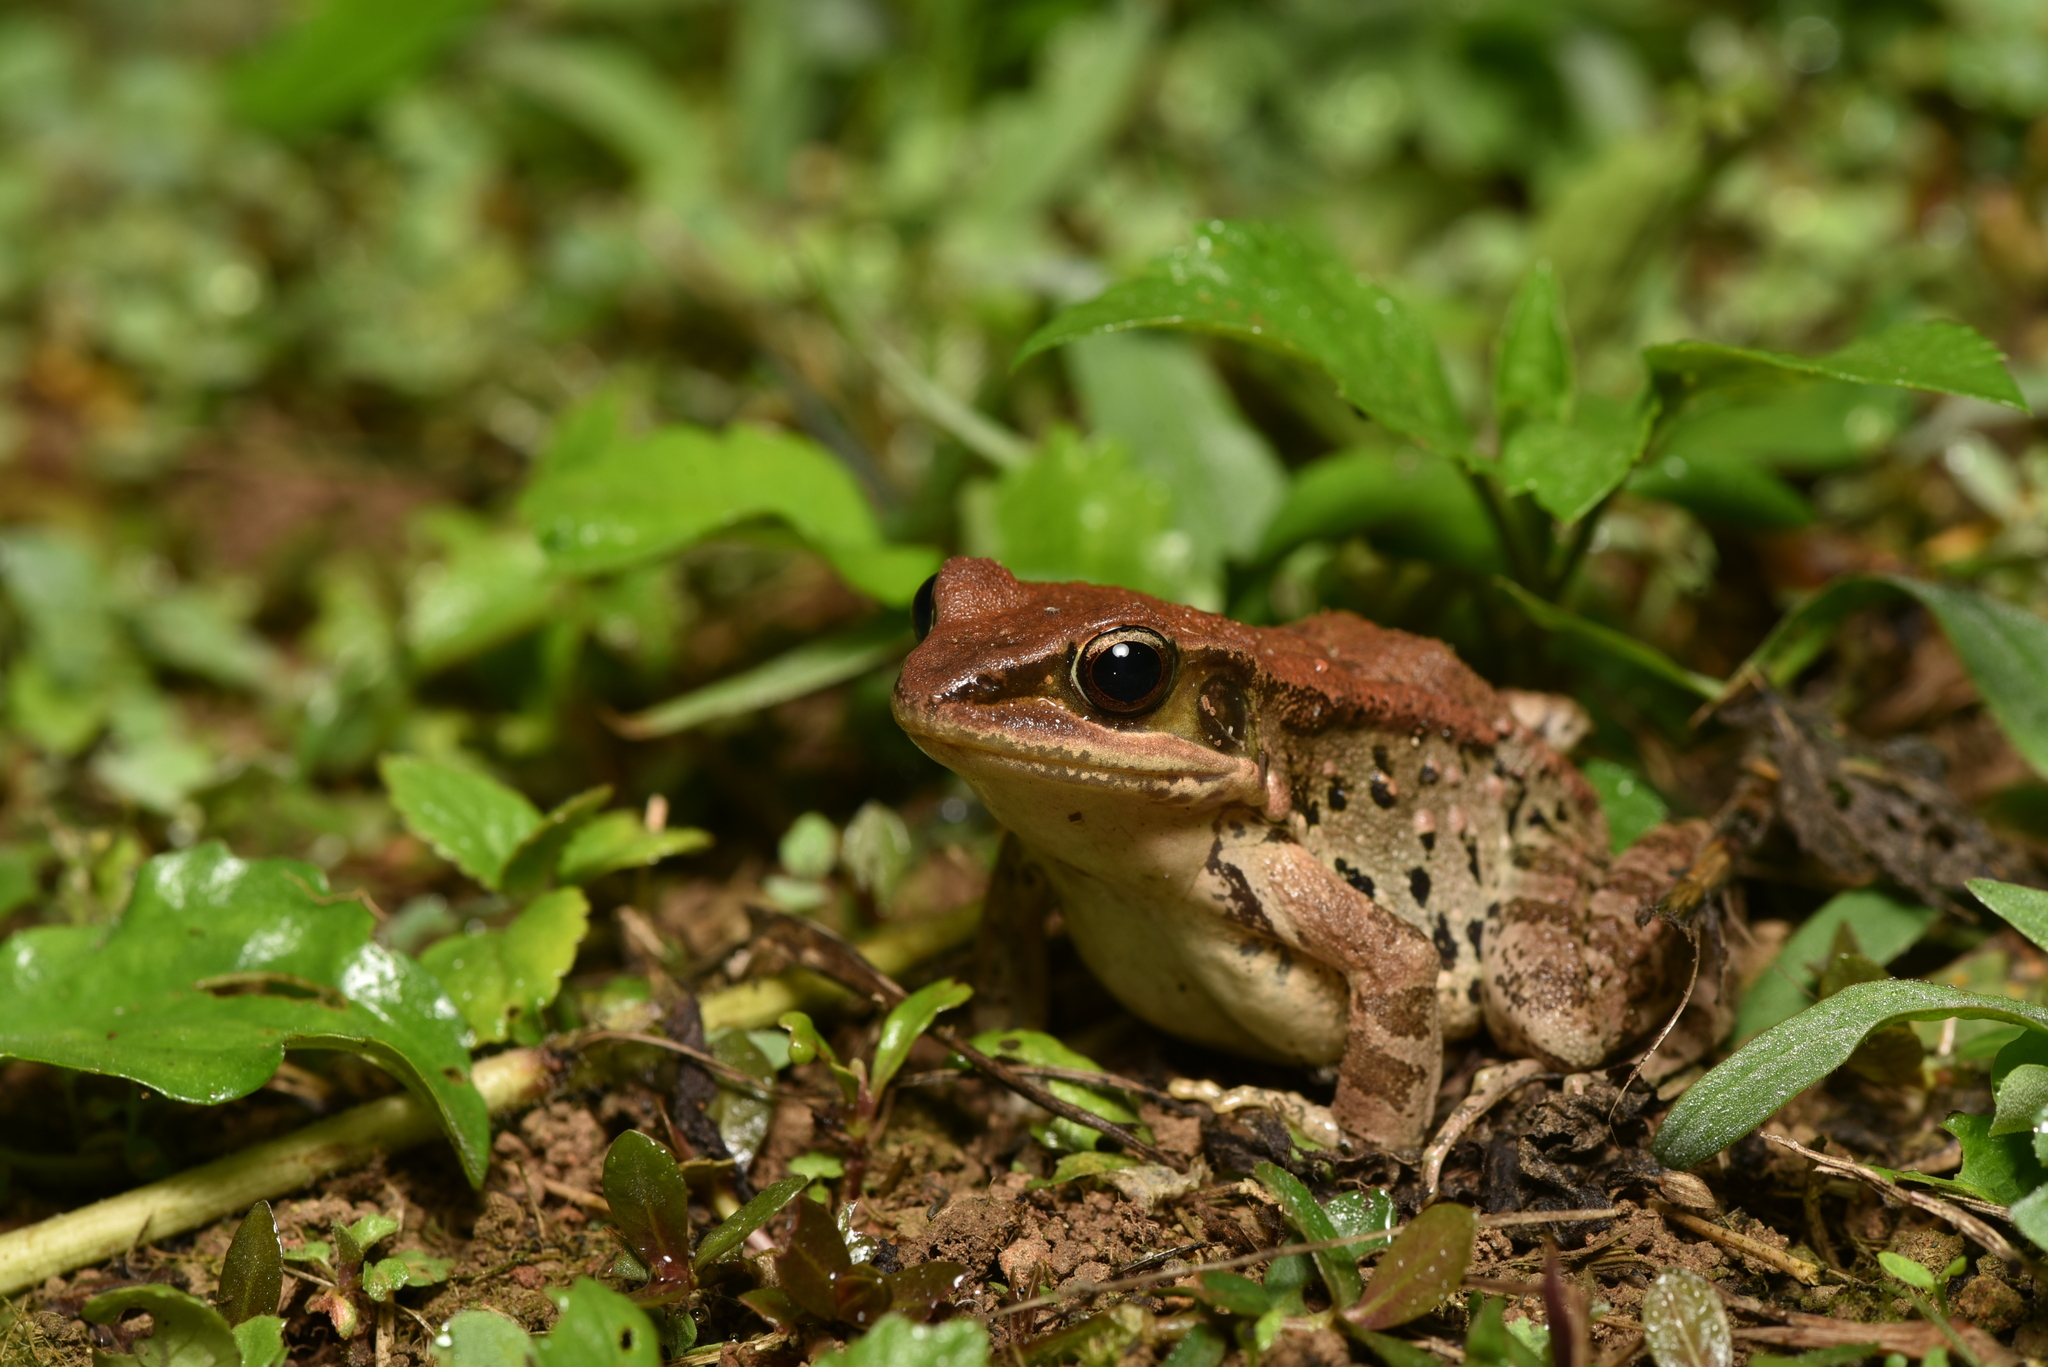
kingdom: Animalia
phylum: Chordata
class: Amphibia
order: Anura
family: Ranidae
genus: Hylarana
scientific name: Hylarana latouchii
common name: Broad-folded frog
